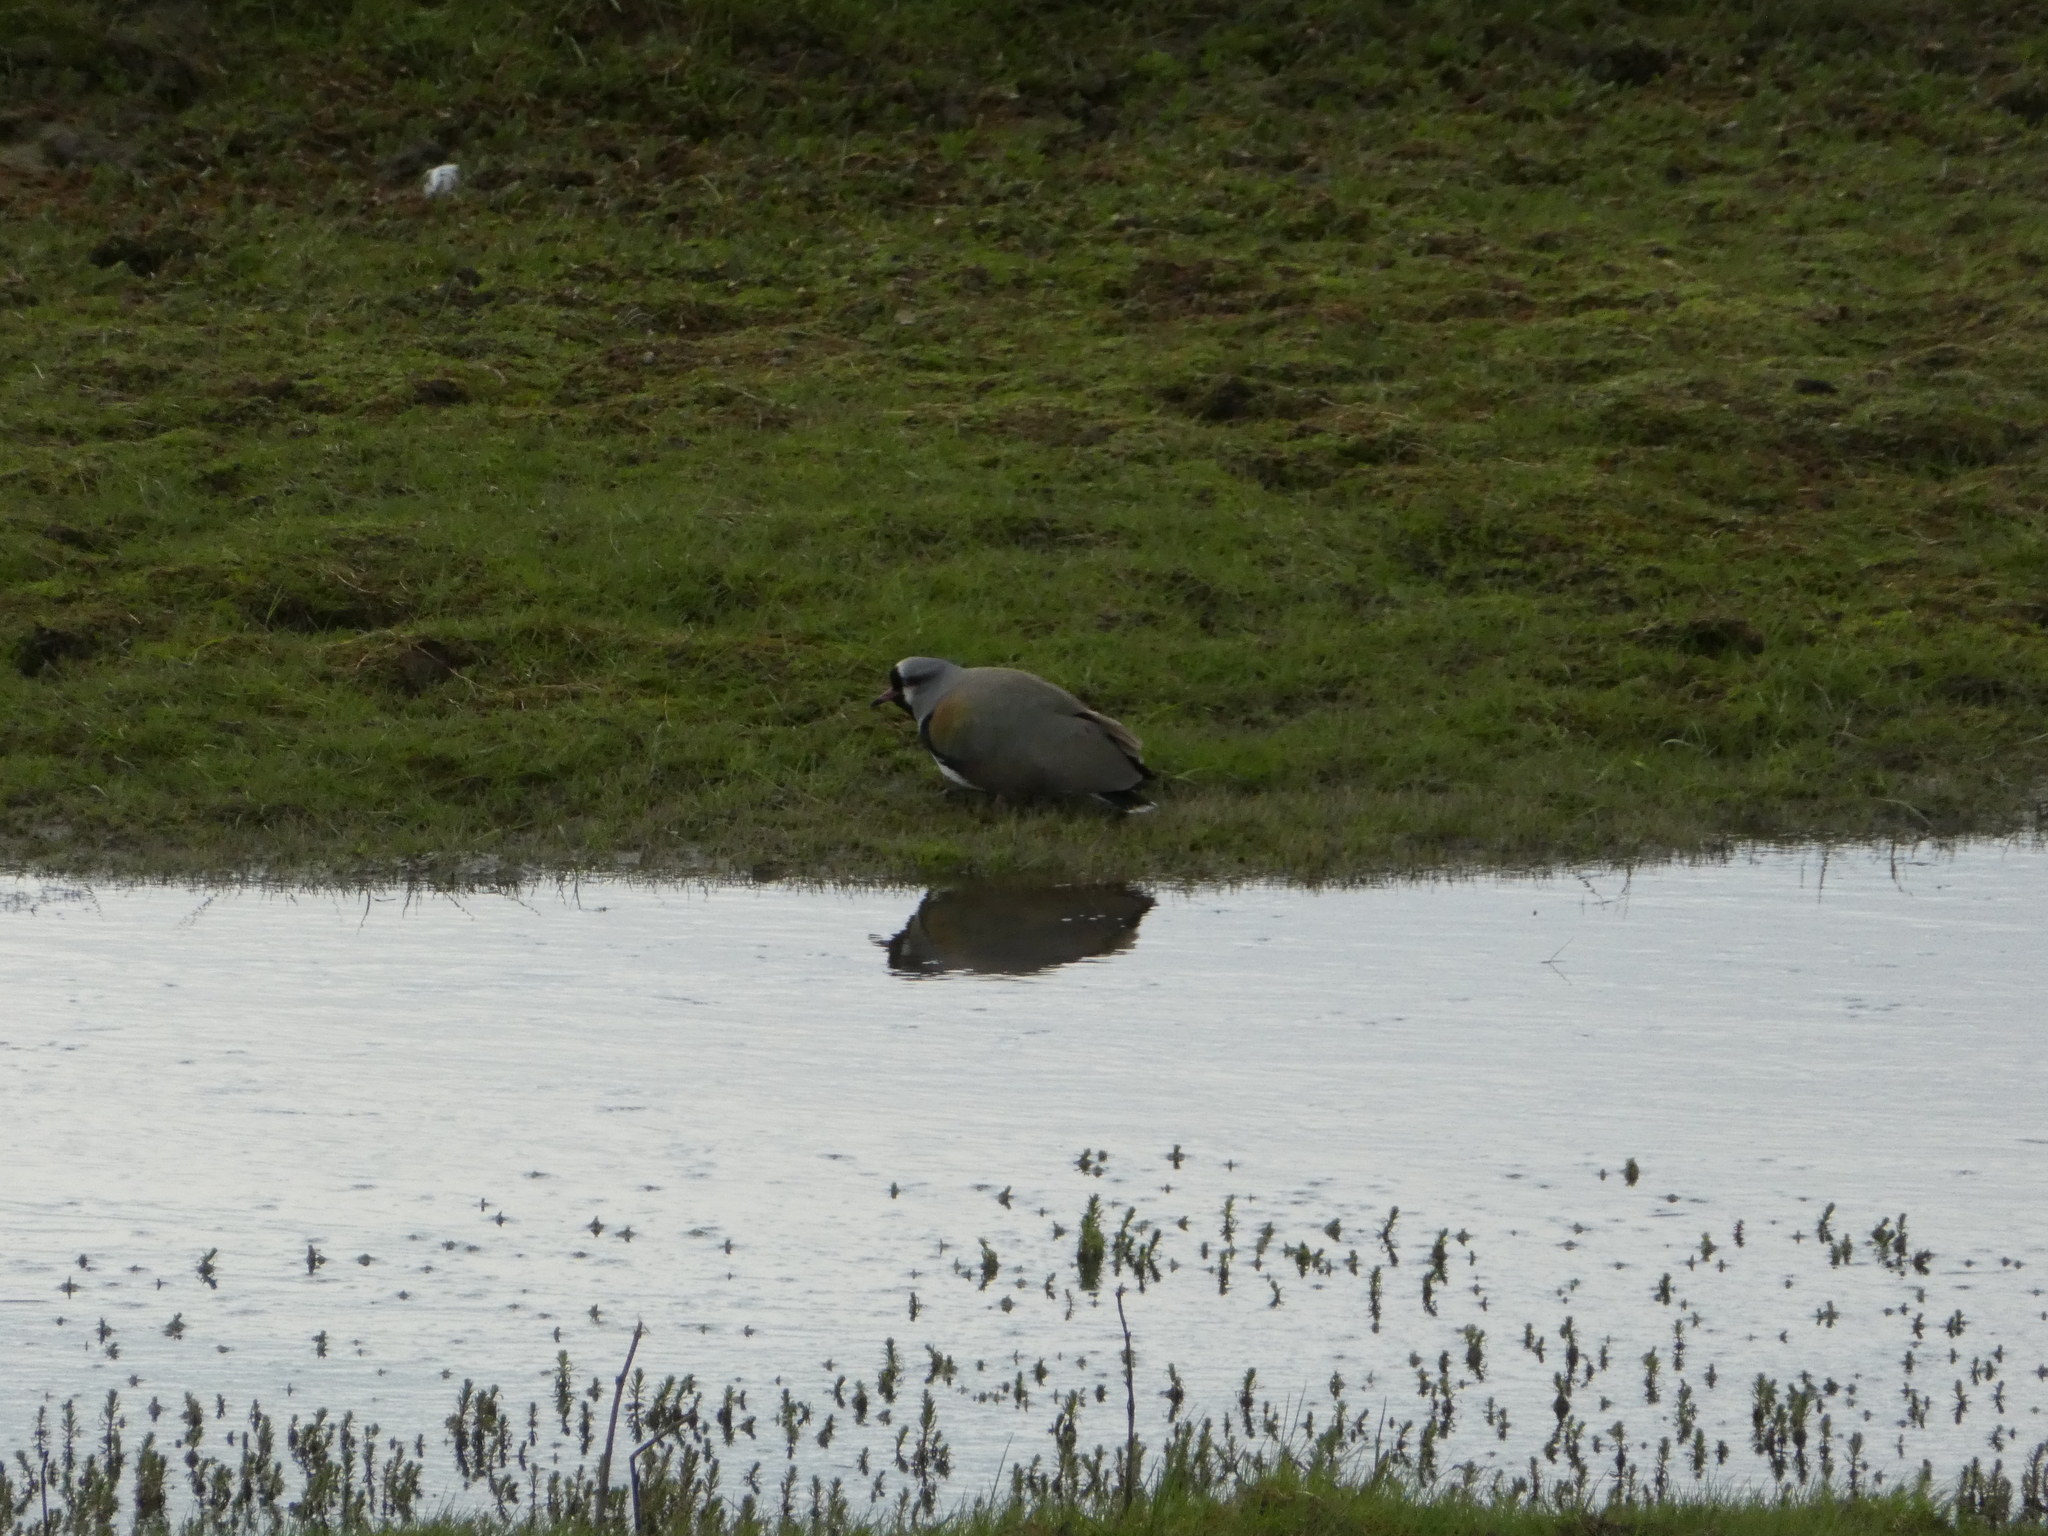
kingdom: Animalia
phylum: Chordata
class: Aves
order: Charadriiformes
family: Charadriidae
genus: Vanellus
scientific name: Vanellus chilensis
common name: Southern lapwing
